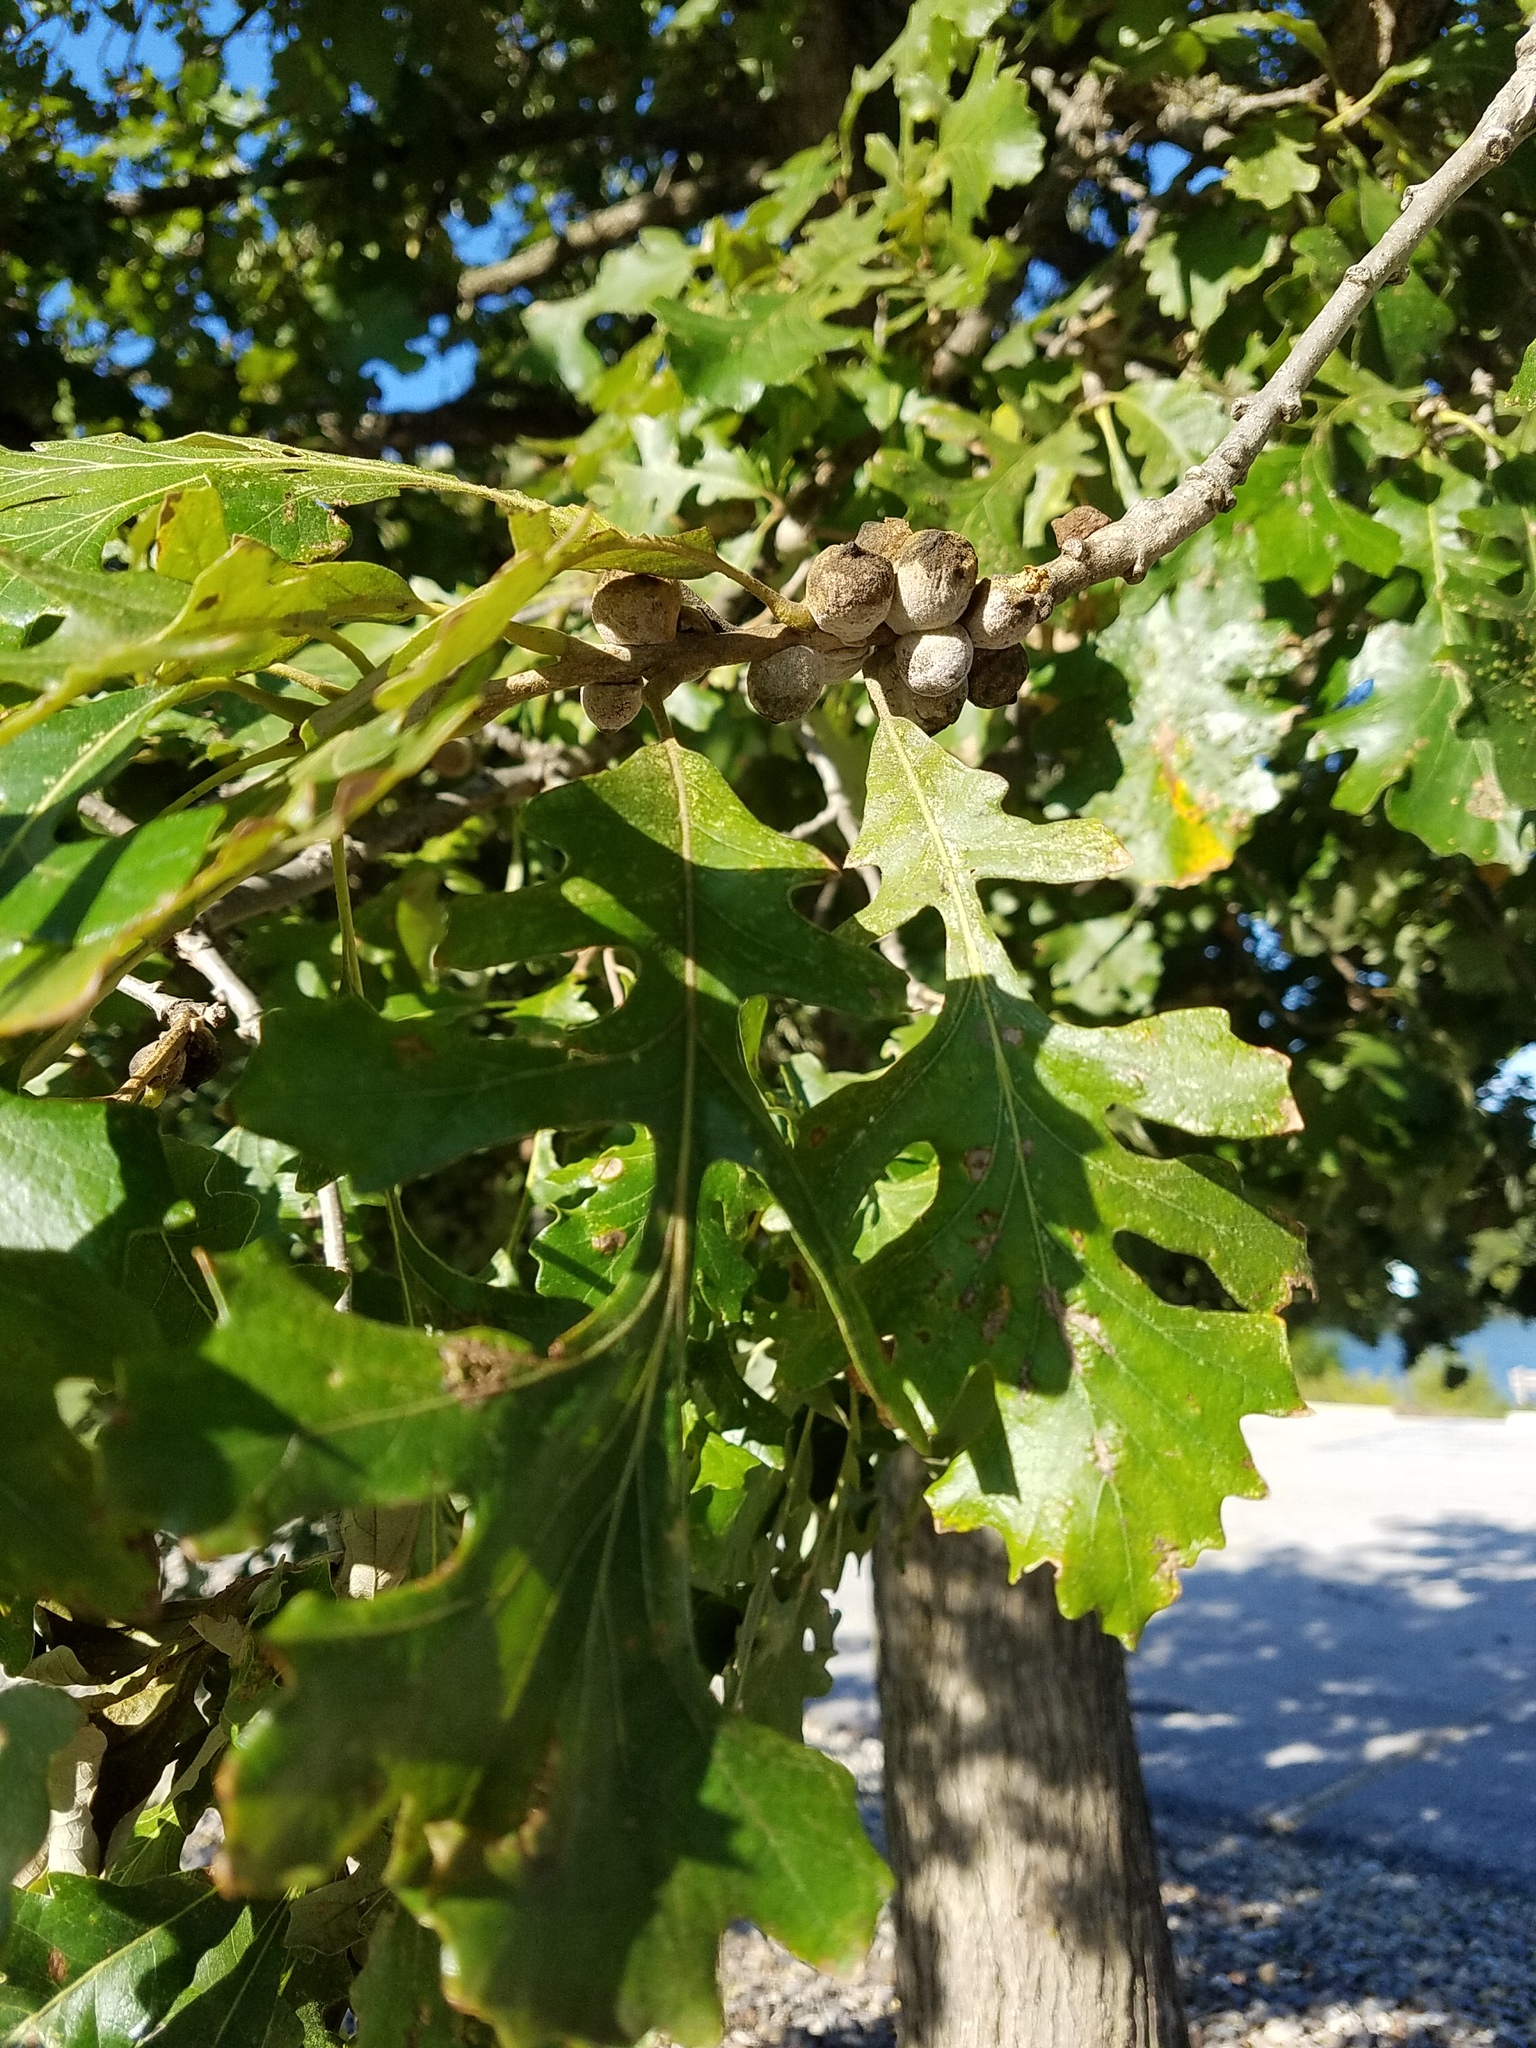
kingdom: Plantae
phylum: Tracheophyta
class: Magnoliopsida
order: Fagales
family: Fagaceae
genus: Quercus
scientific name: Quercus macrocarpa
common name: Bur oak
